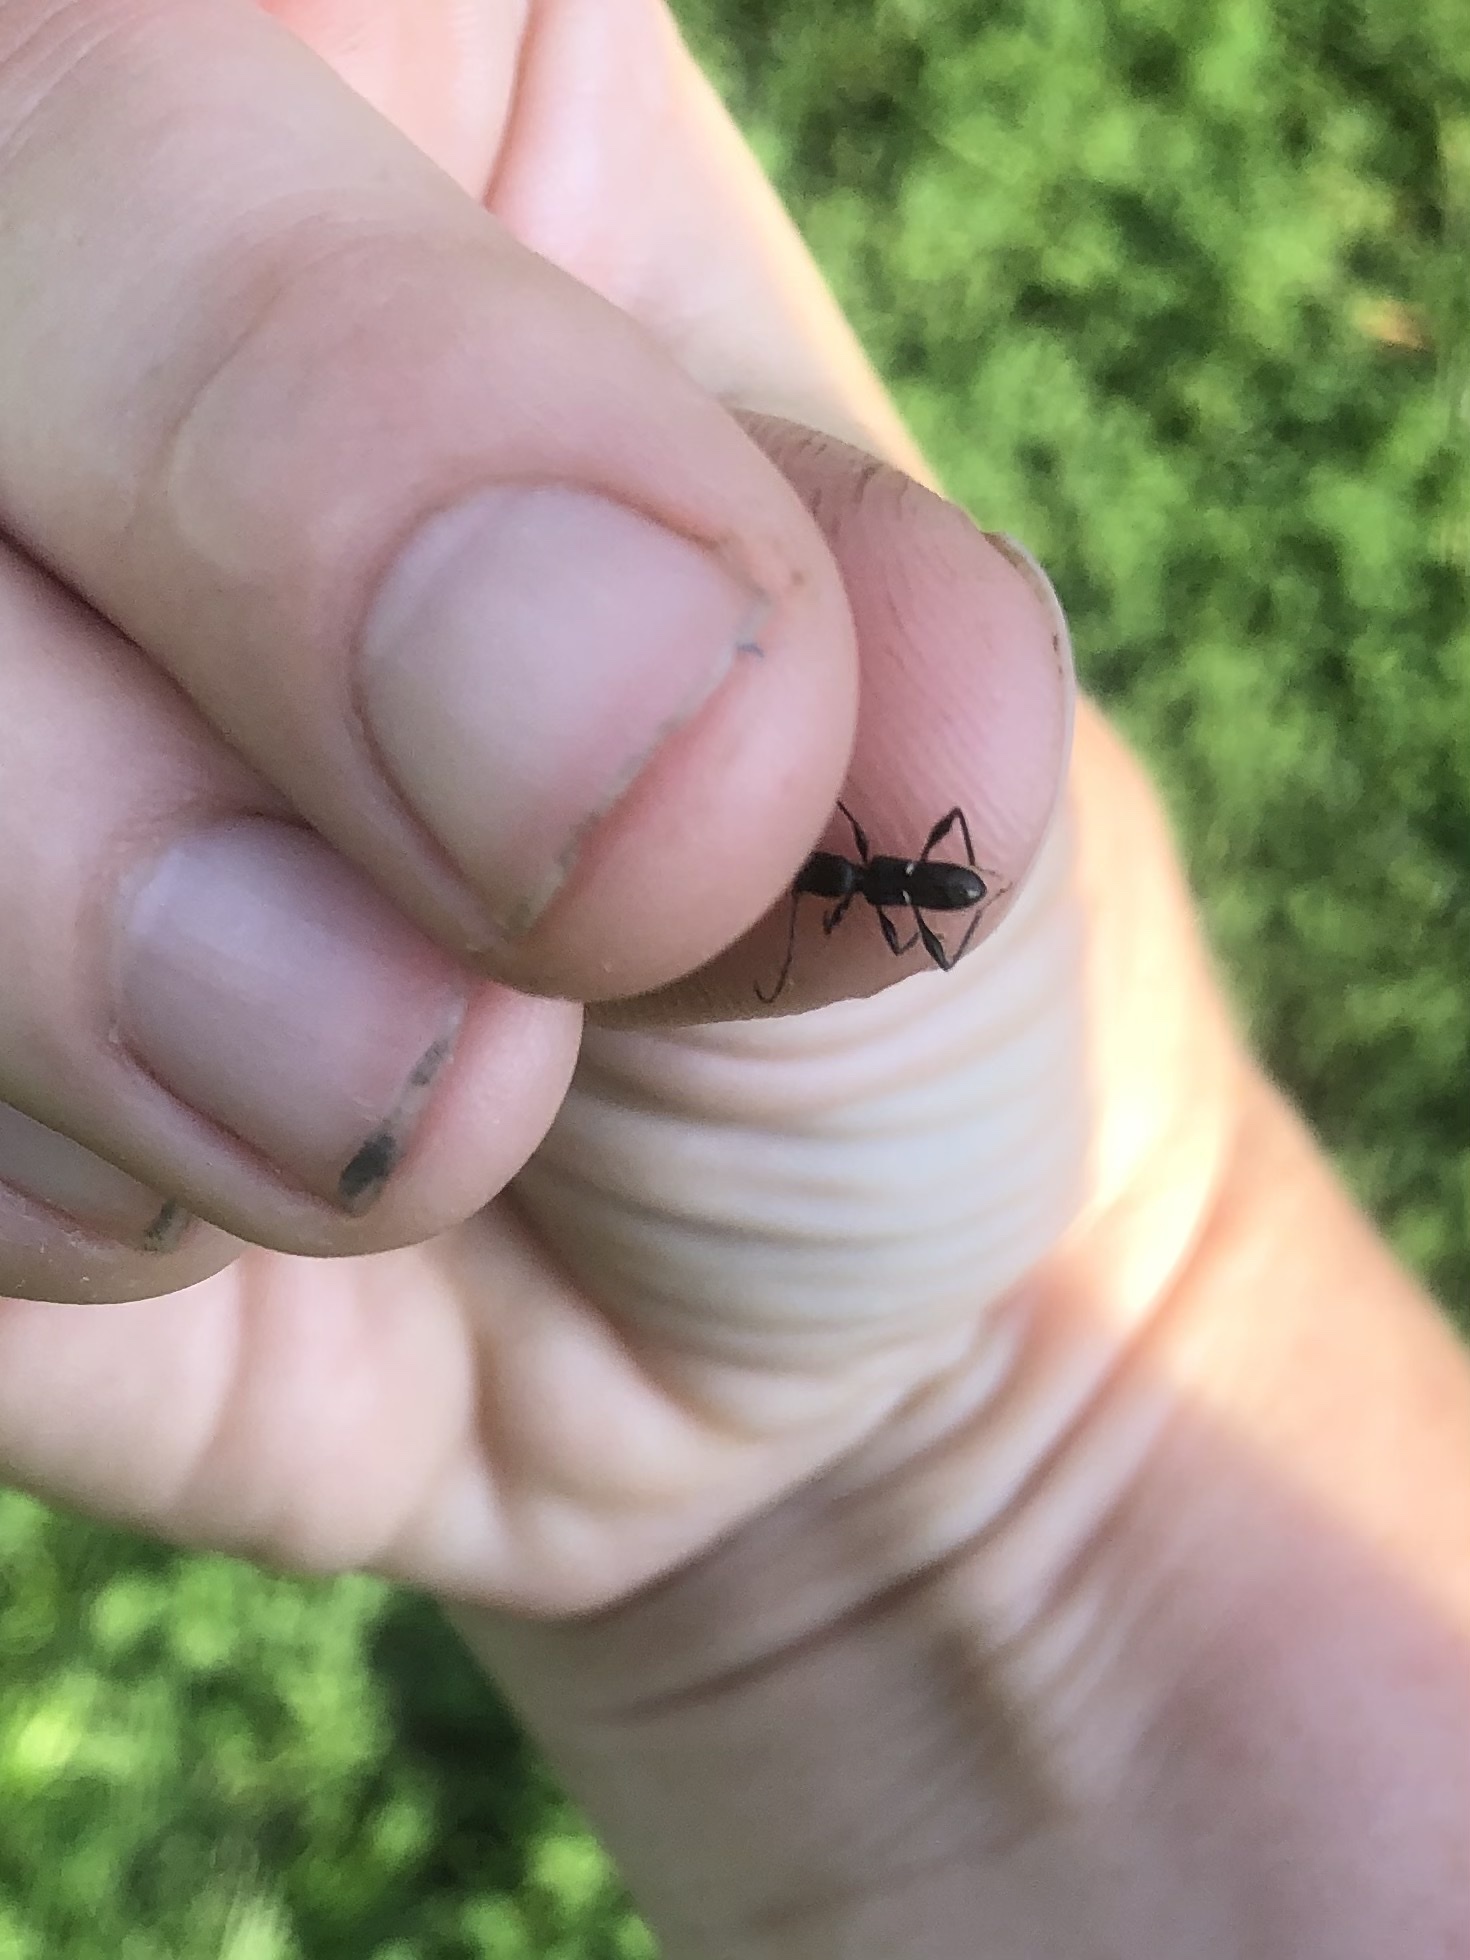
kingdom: Animalia
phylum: Arthropoda
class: Insecta
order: Coleoptera
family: Cerambycidae
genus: Euderces
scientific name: Euderces picipes
